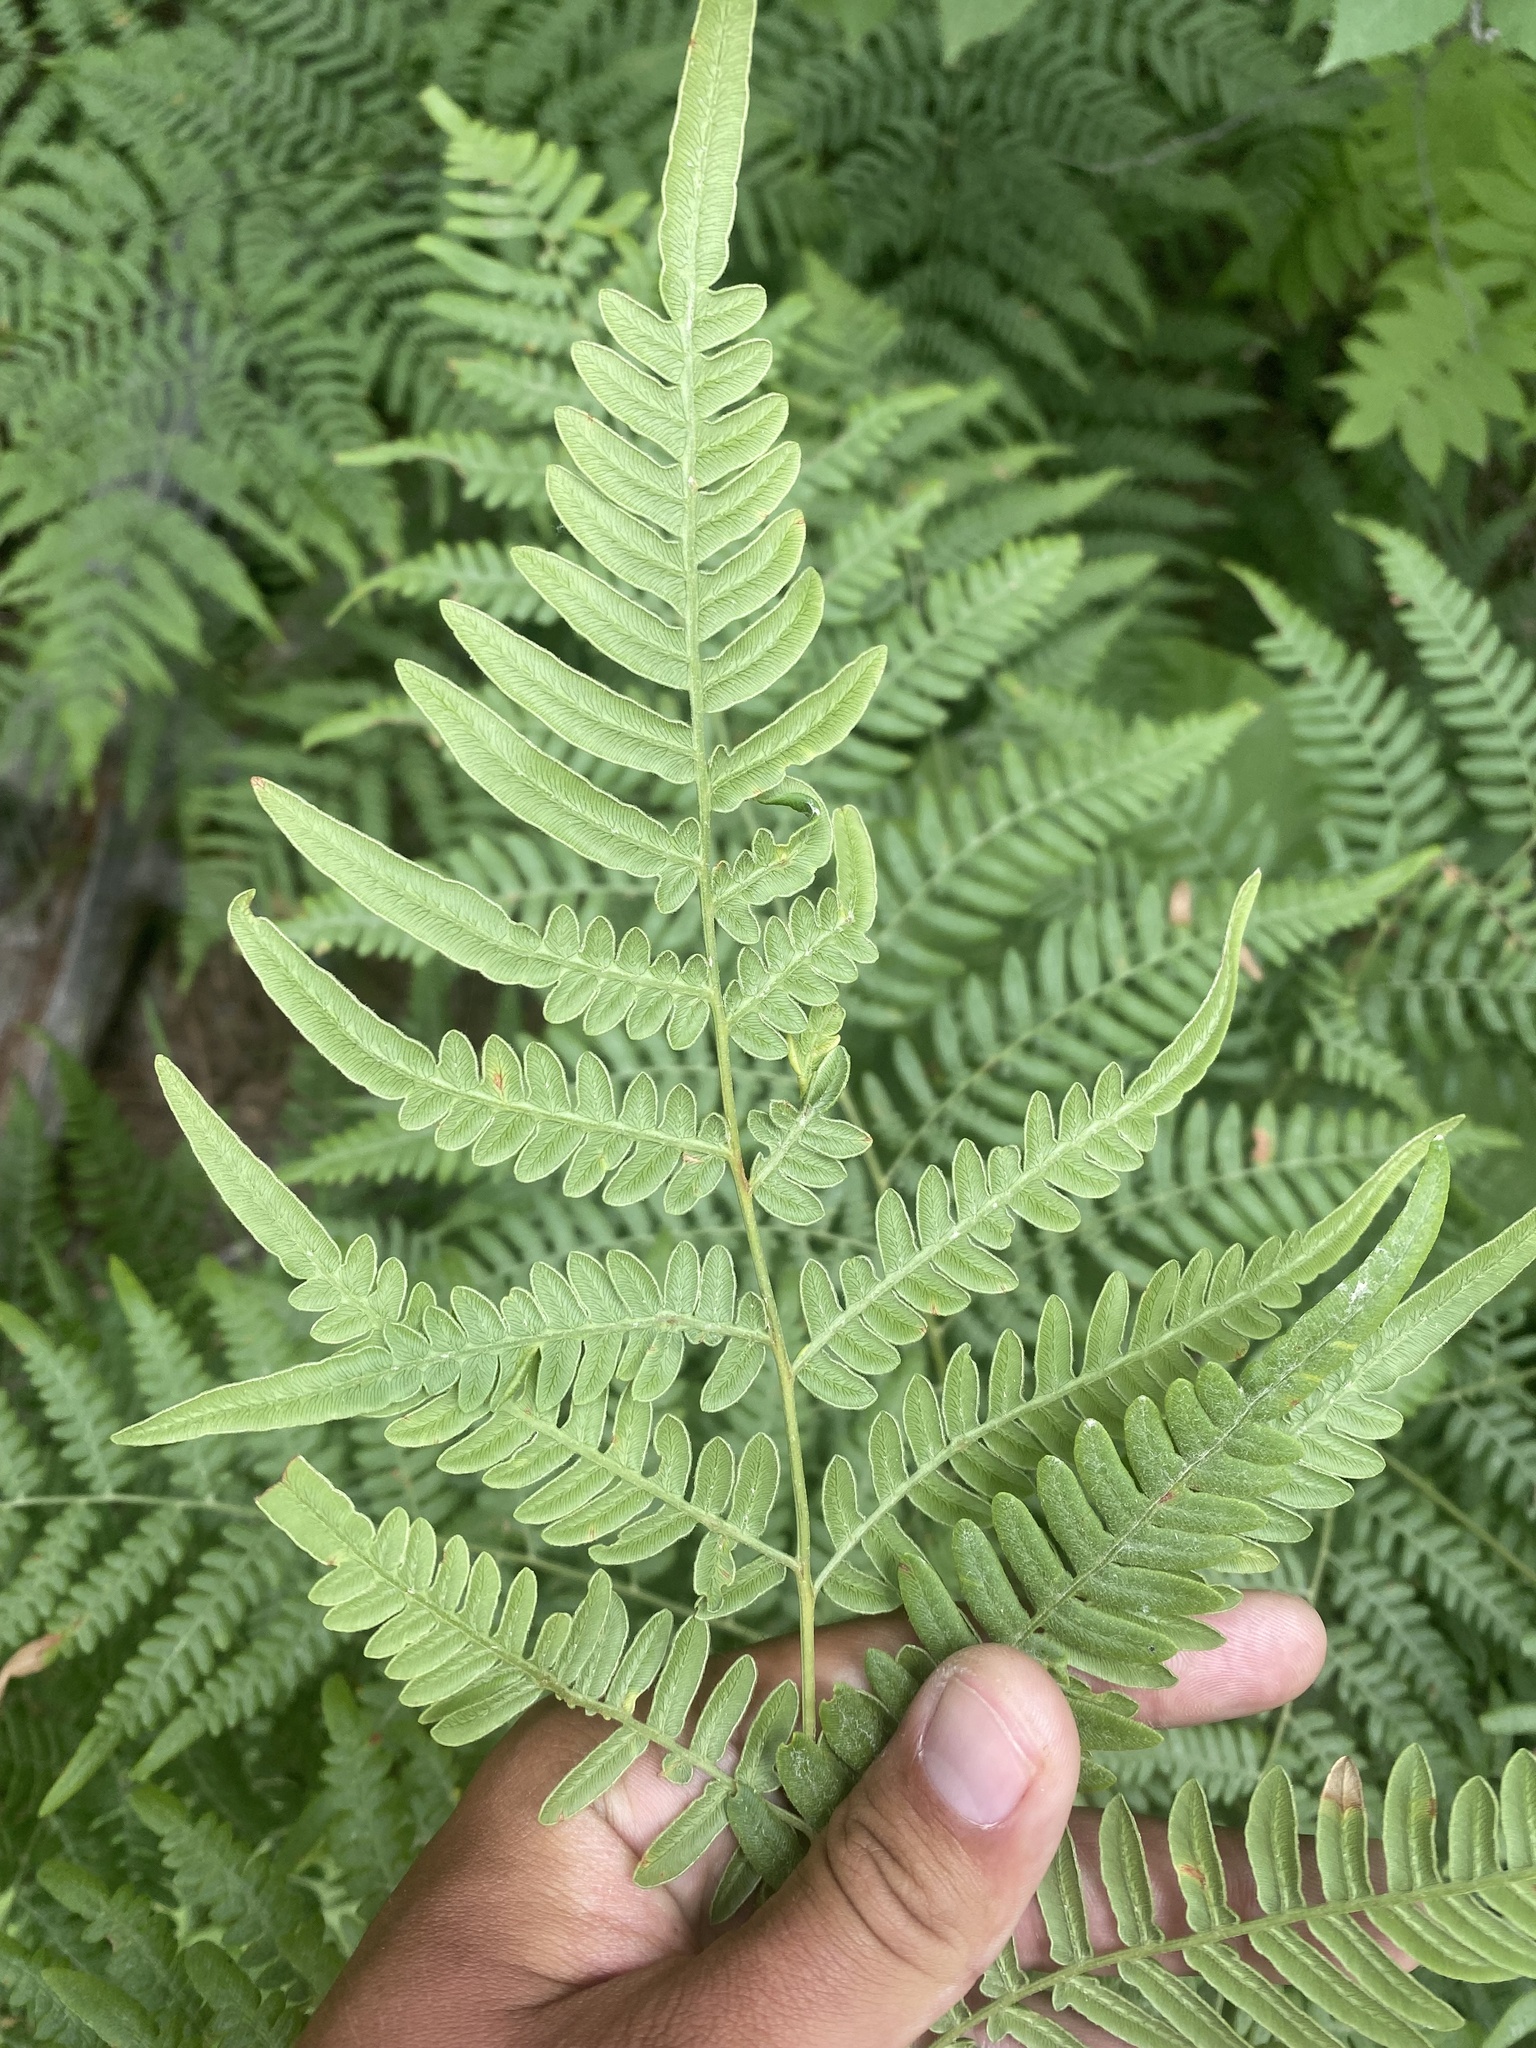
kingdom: Plantae
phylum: Tracheophyta
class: Polypodiopsida
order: Polypodiales
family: Dennstaedtiaceae
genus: Pteridium
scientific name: Pteridium aquilinum
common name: Bracken
